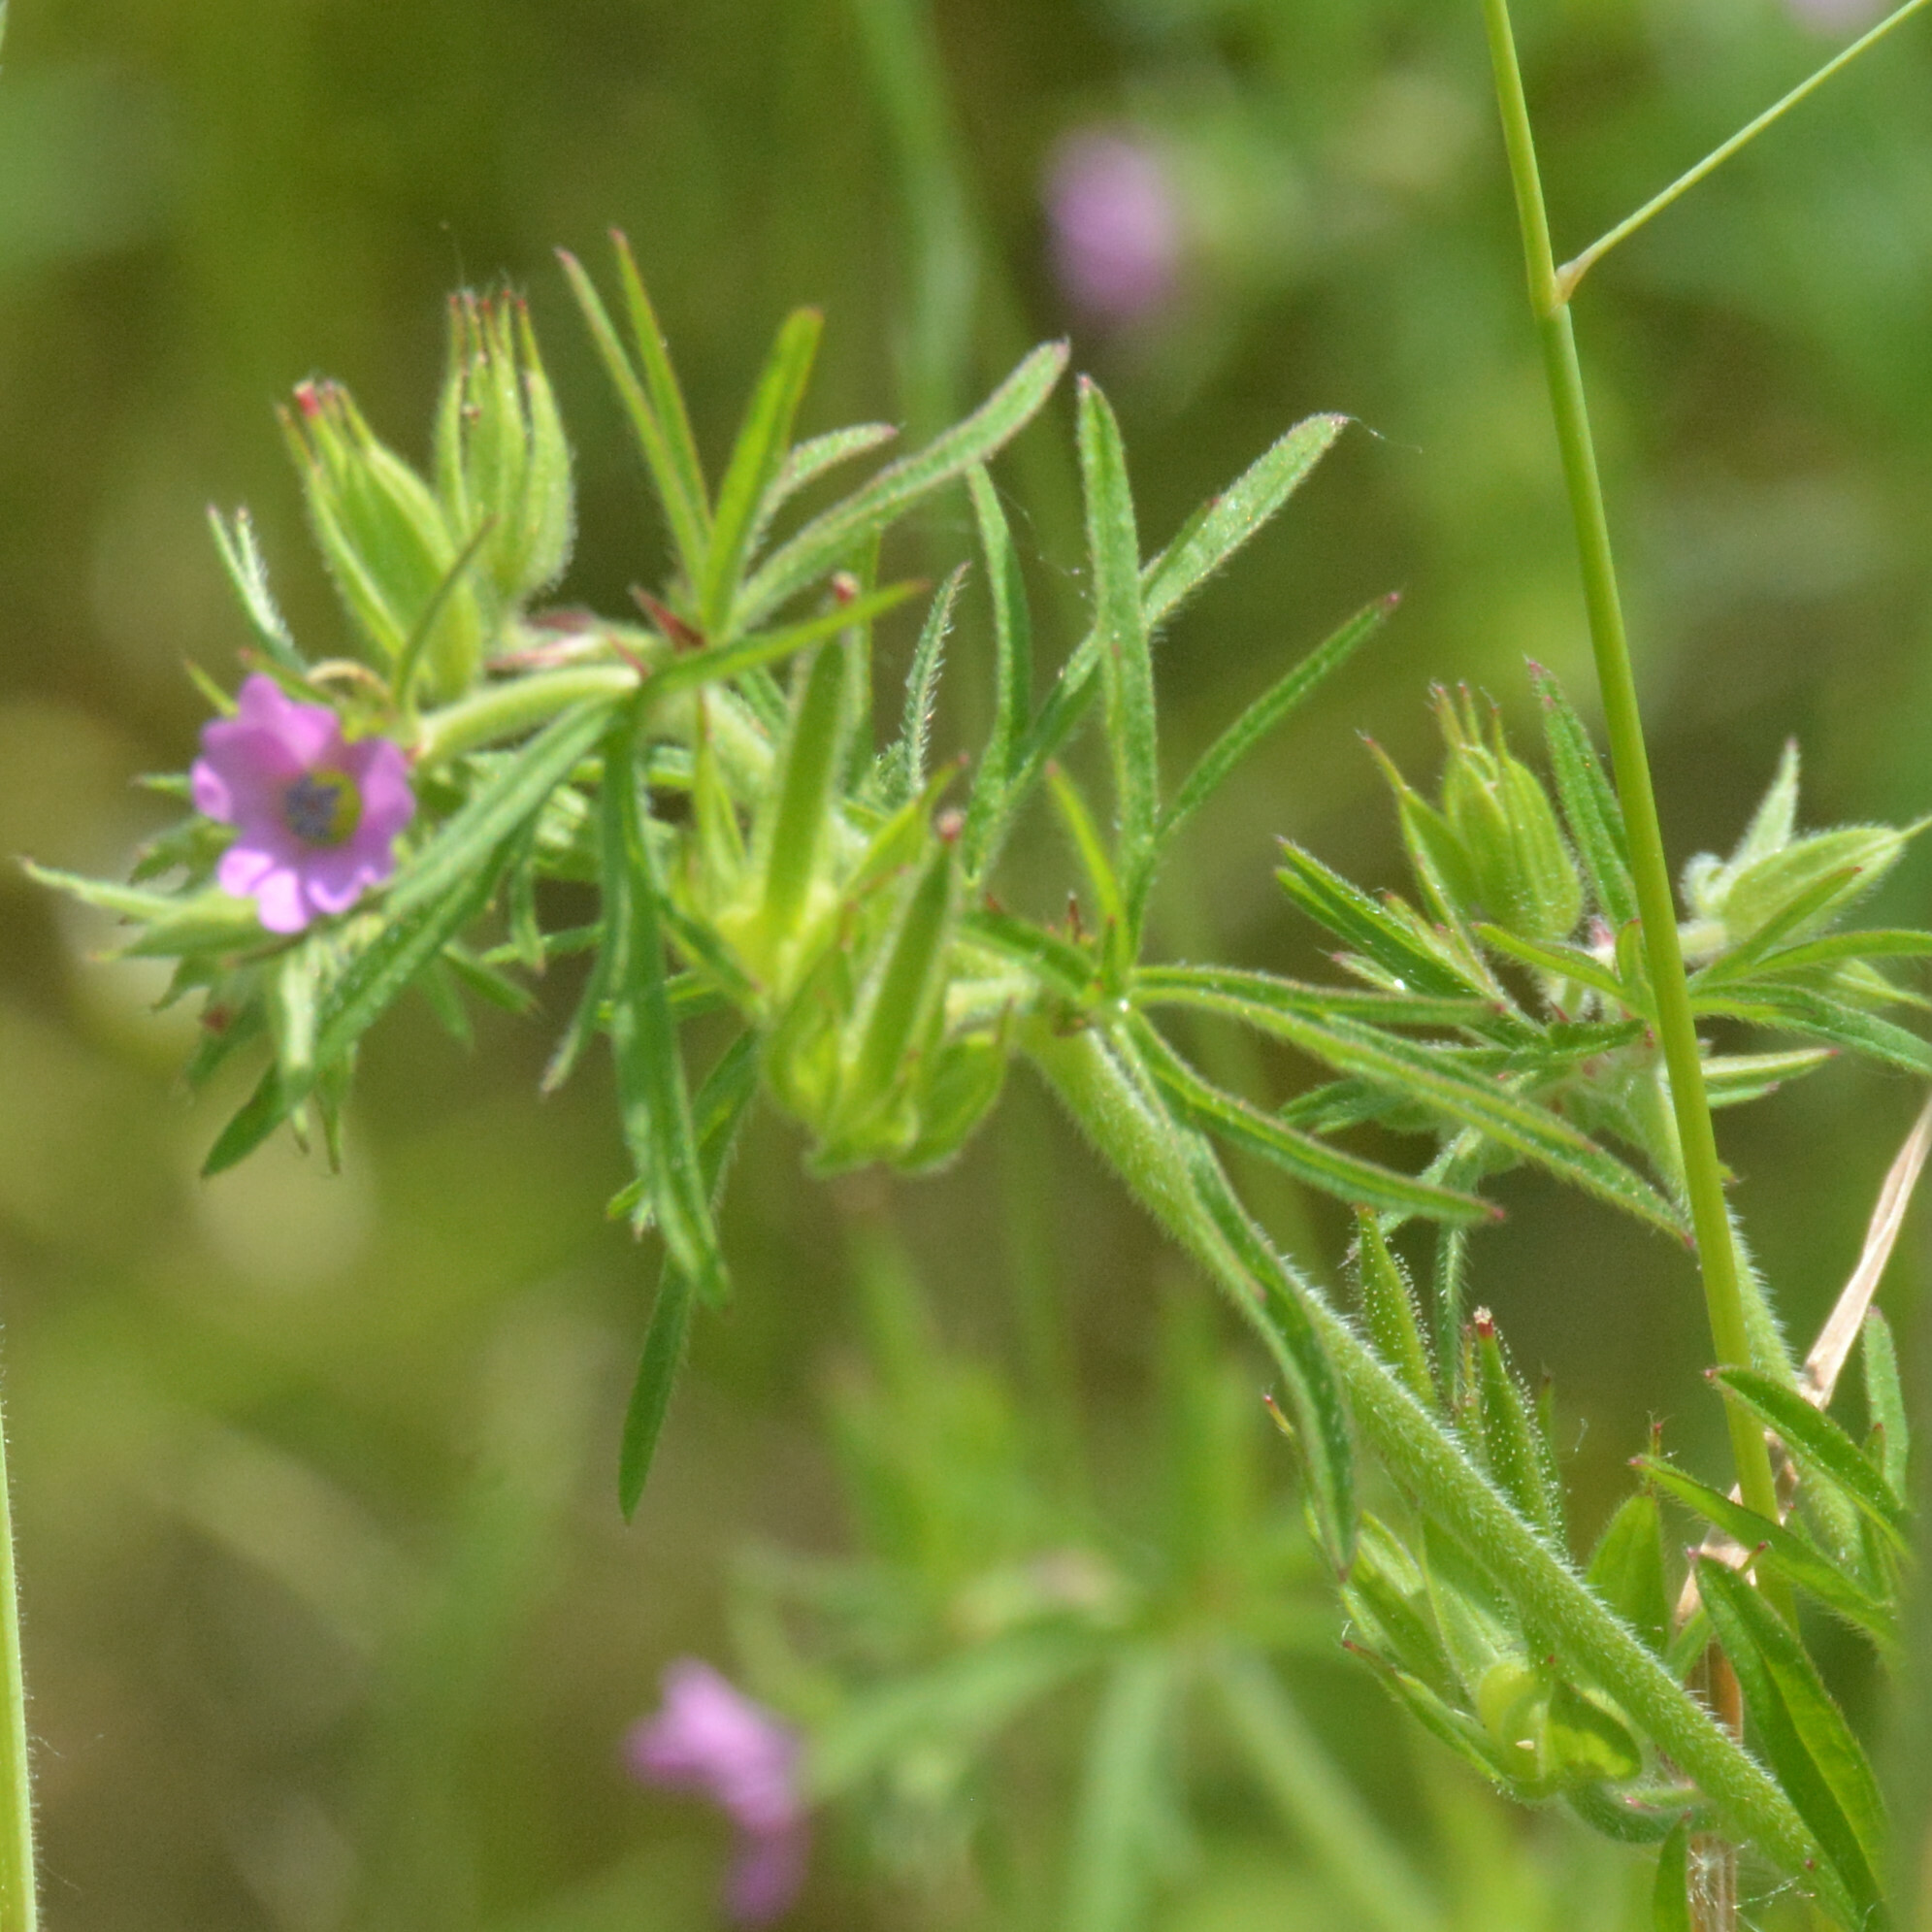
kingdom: Plantae
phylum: Tracheophyta
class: Magnoliopsida
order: Geraniales
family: Geraniaceae
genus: Geranium
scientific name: Geranium dissectum
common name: Cut-leaved crane's-bill
